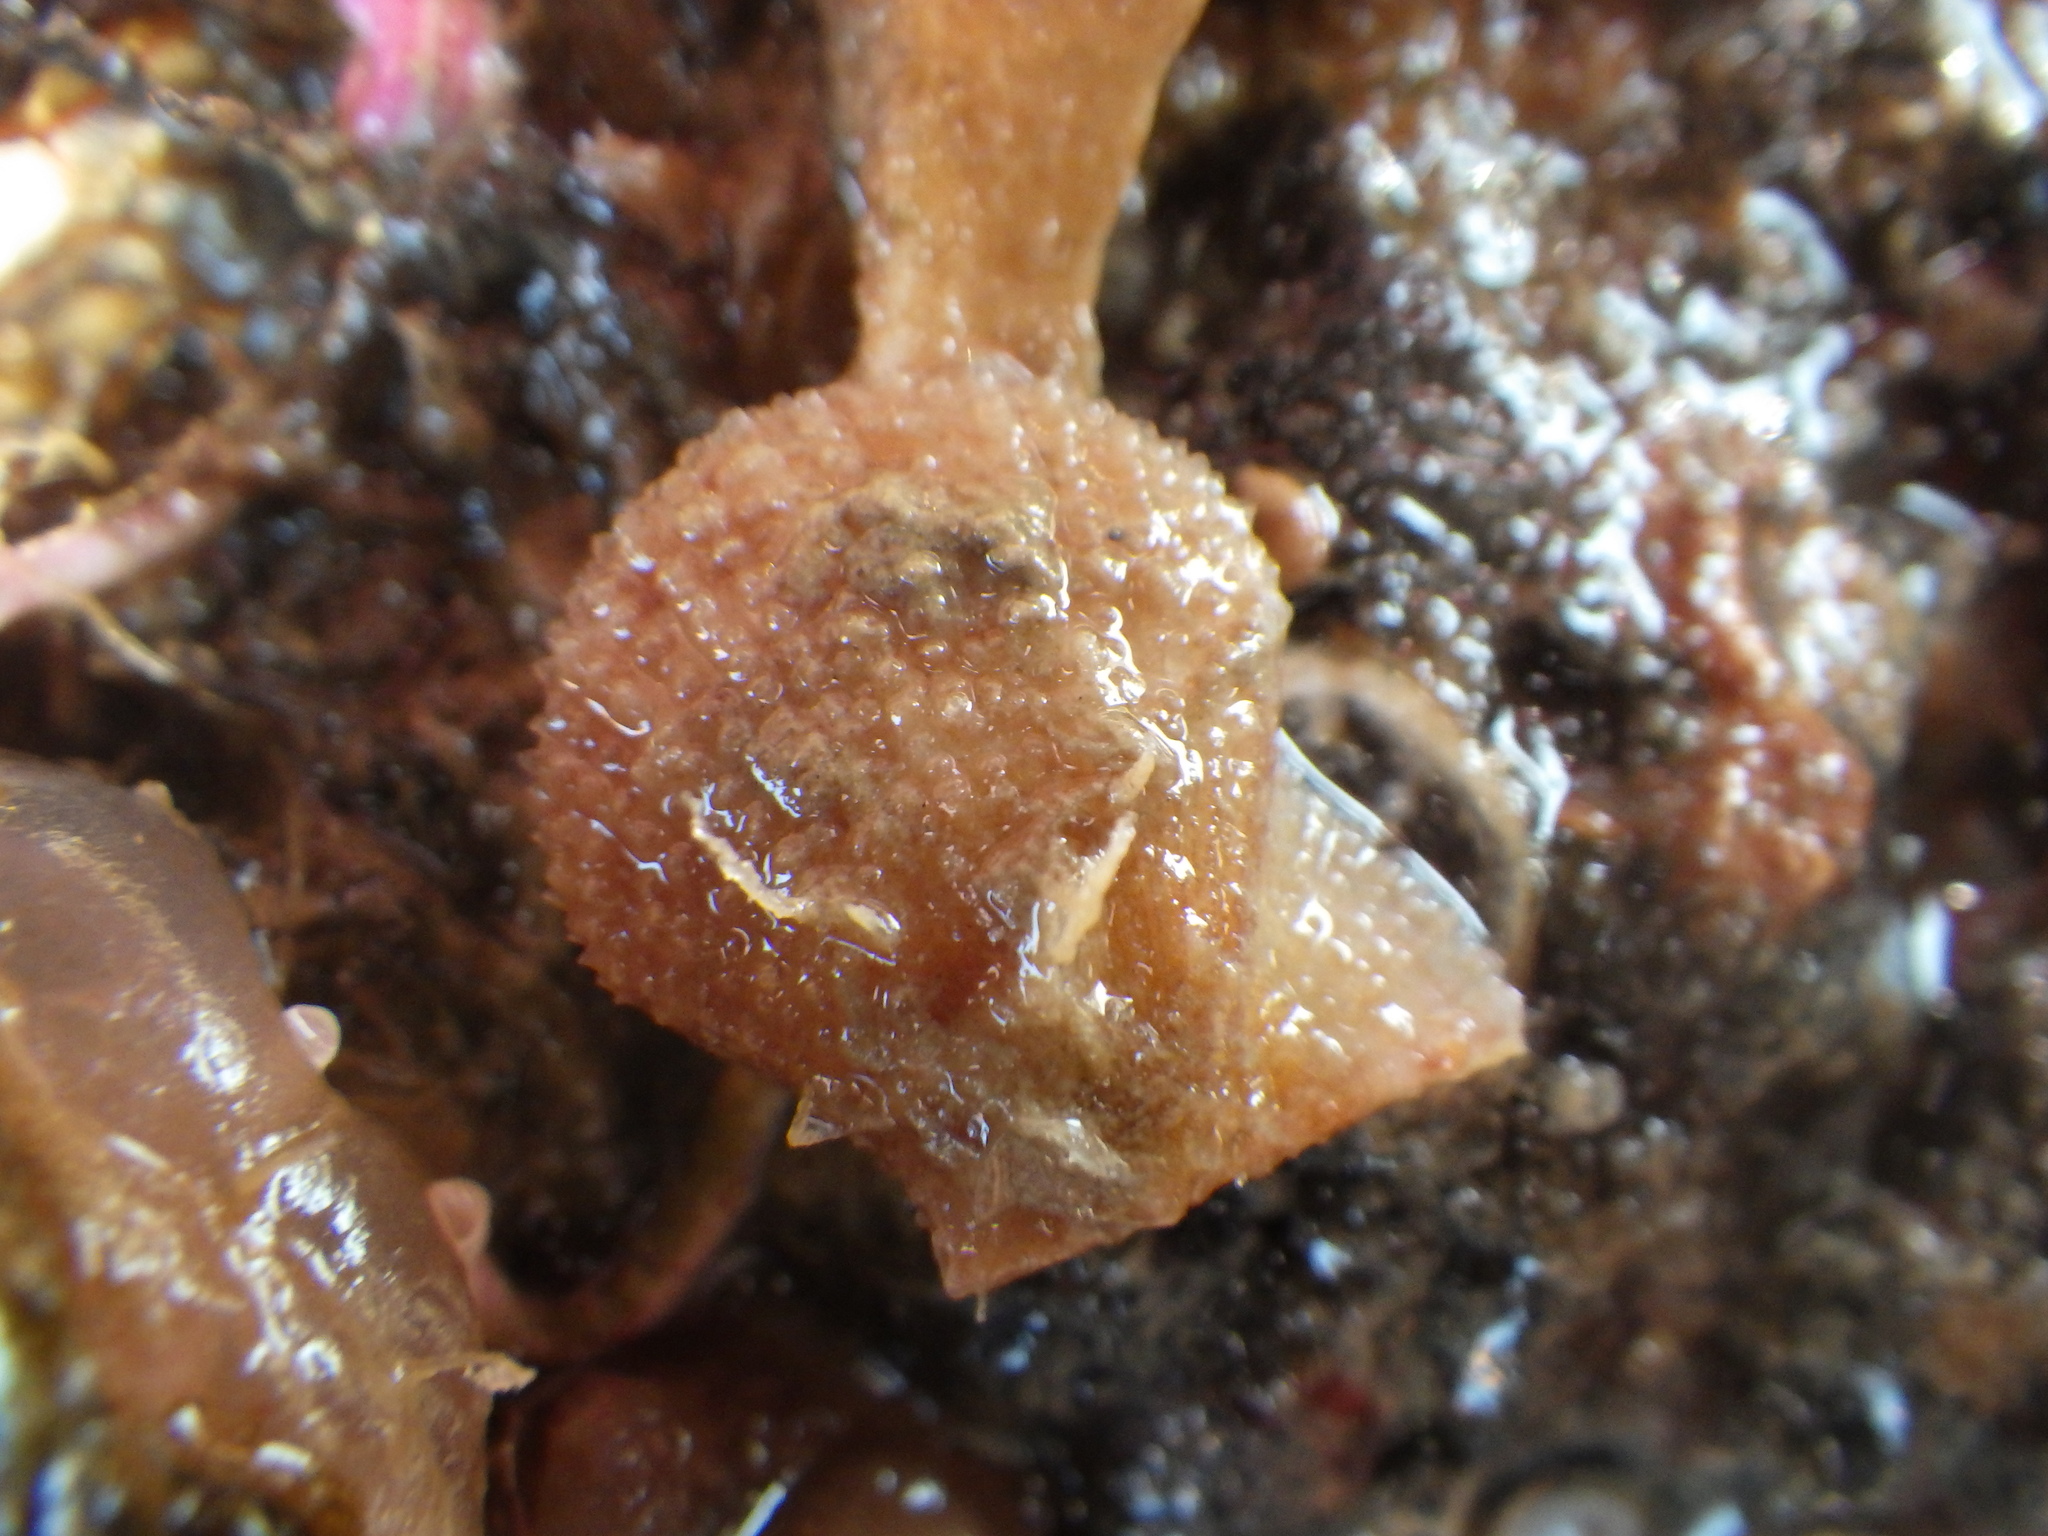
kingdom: Animalia
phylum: Mollusca
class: Bivalvia
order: Pectinida
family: Pectinidae
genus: Talochlamys
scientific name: Talochlamys zelandiae
